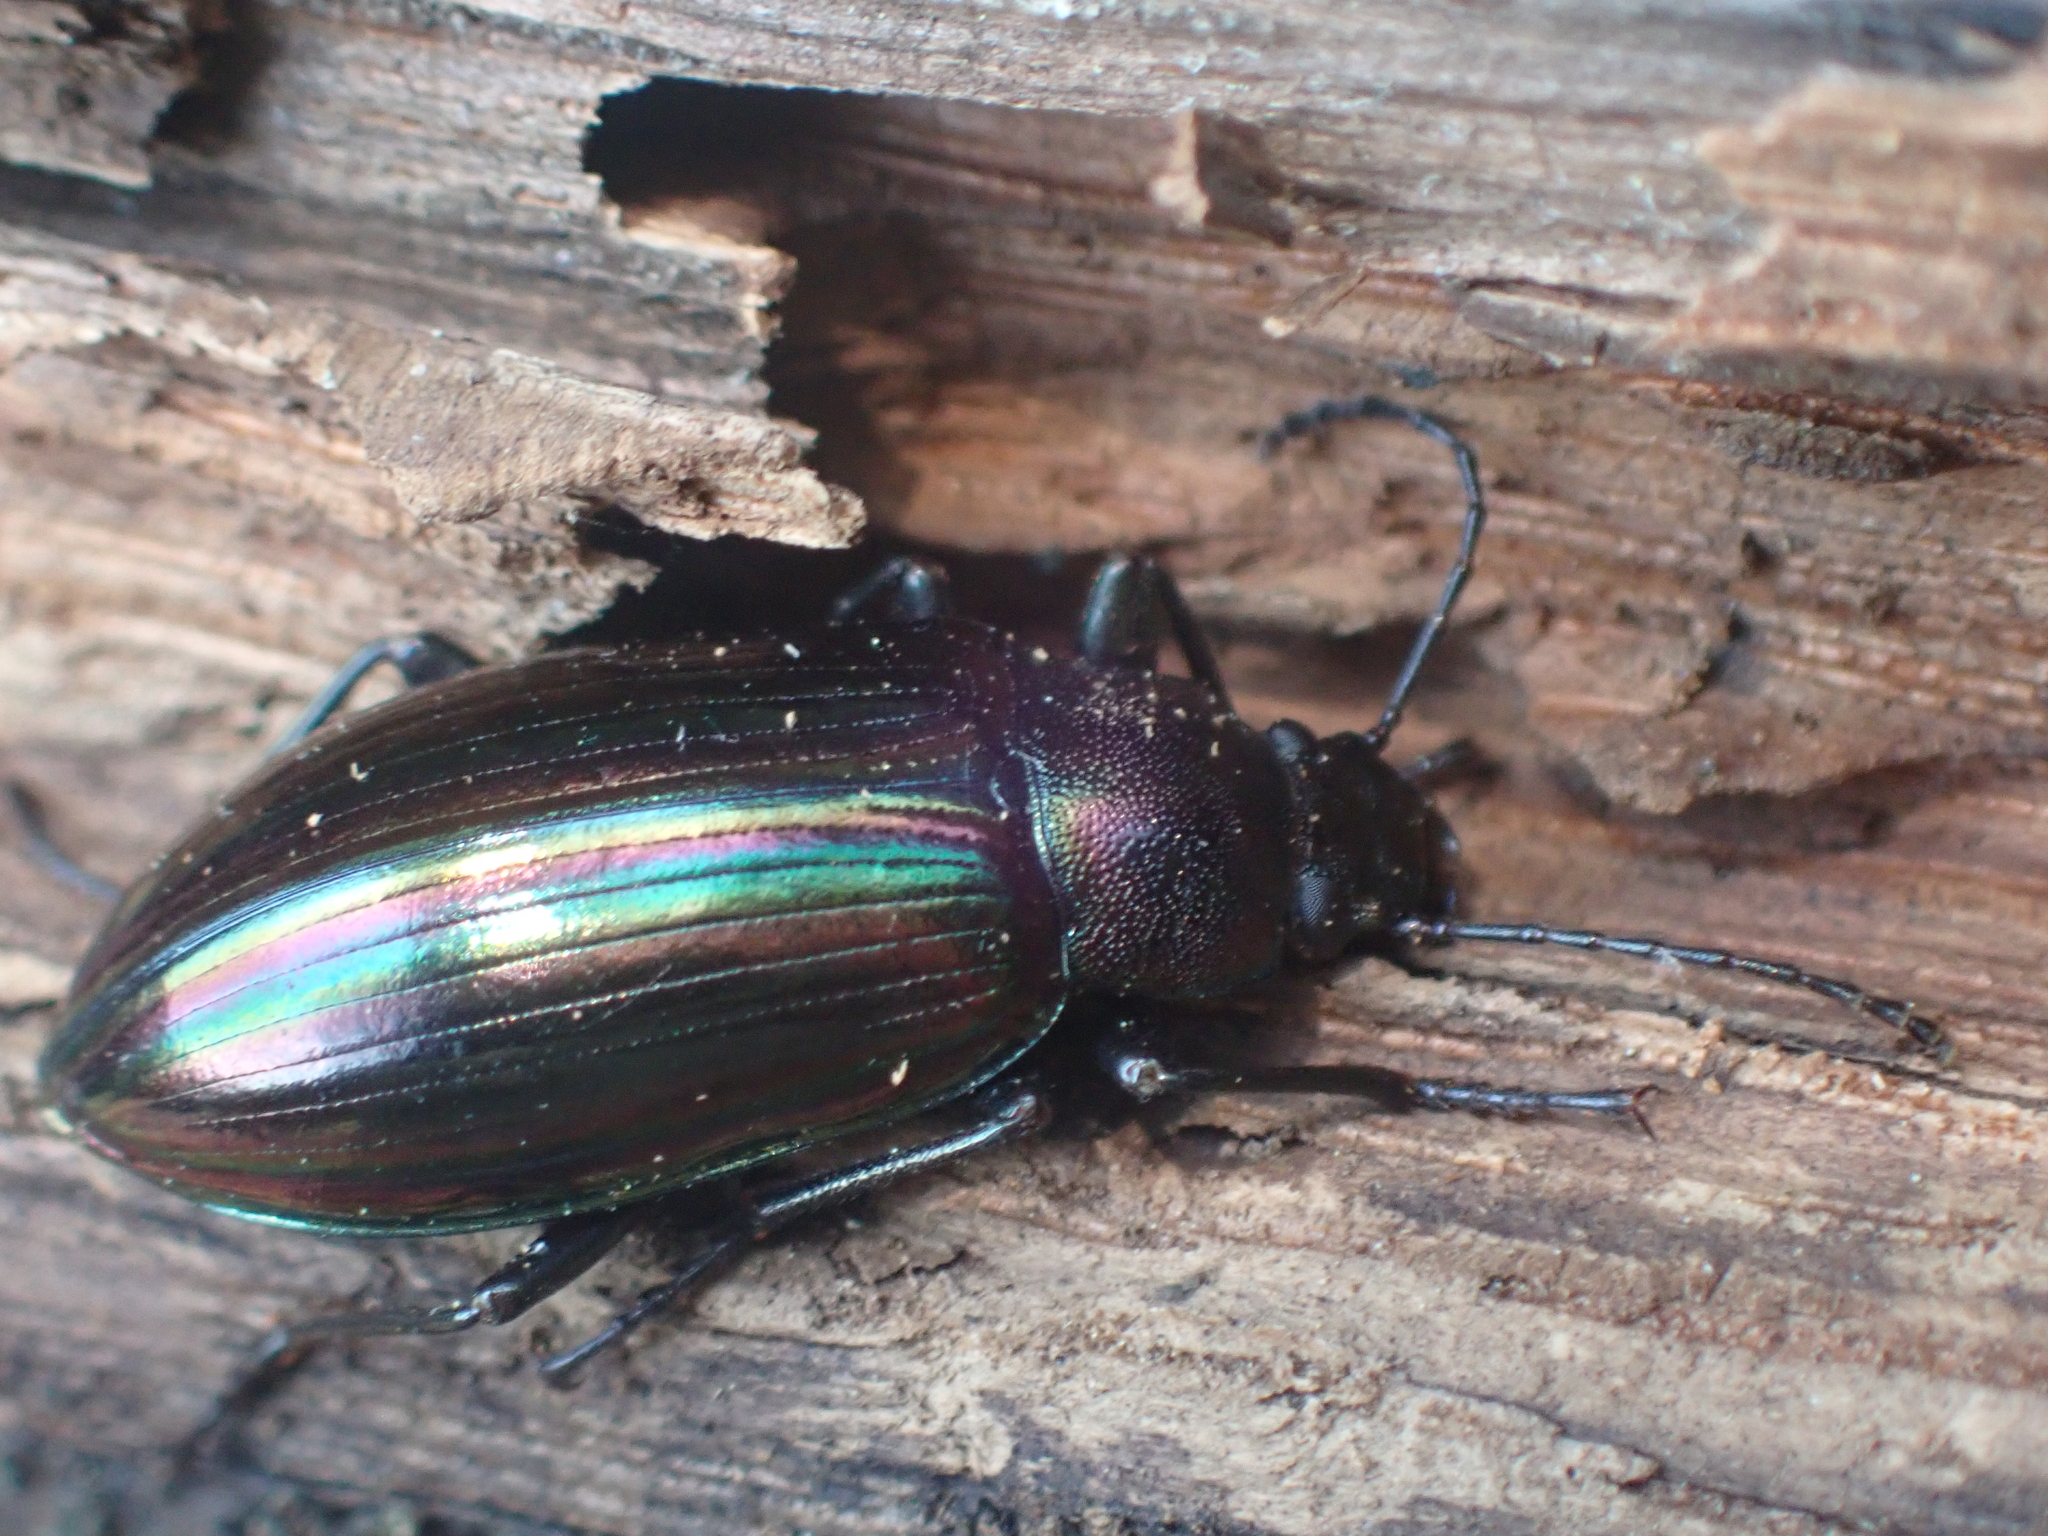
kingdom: Animalia
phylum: Arthropoda
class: Insecta
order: Coleoptera
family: Tenebrionidae
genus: Tarpela
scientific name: Tarpela micans
